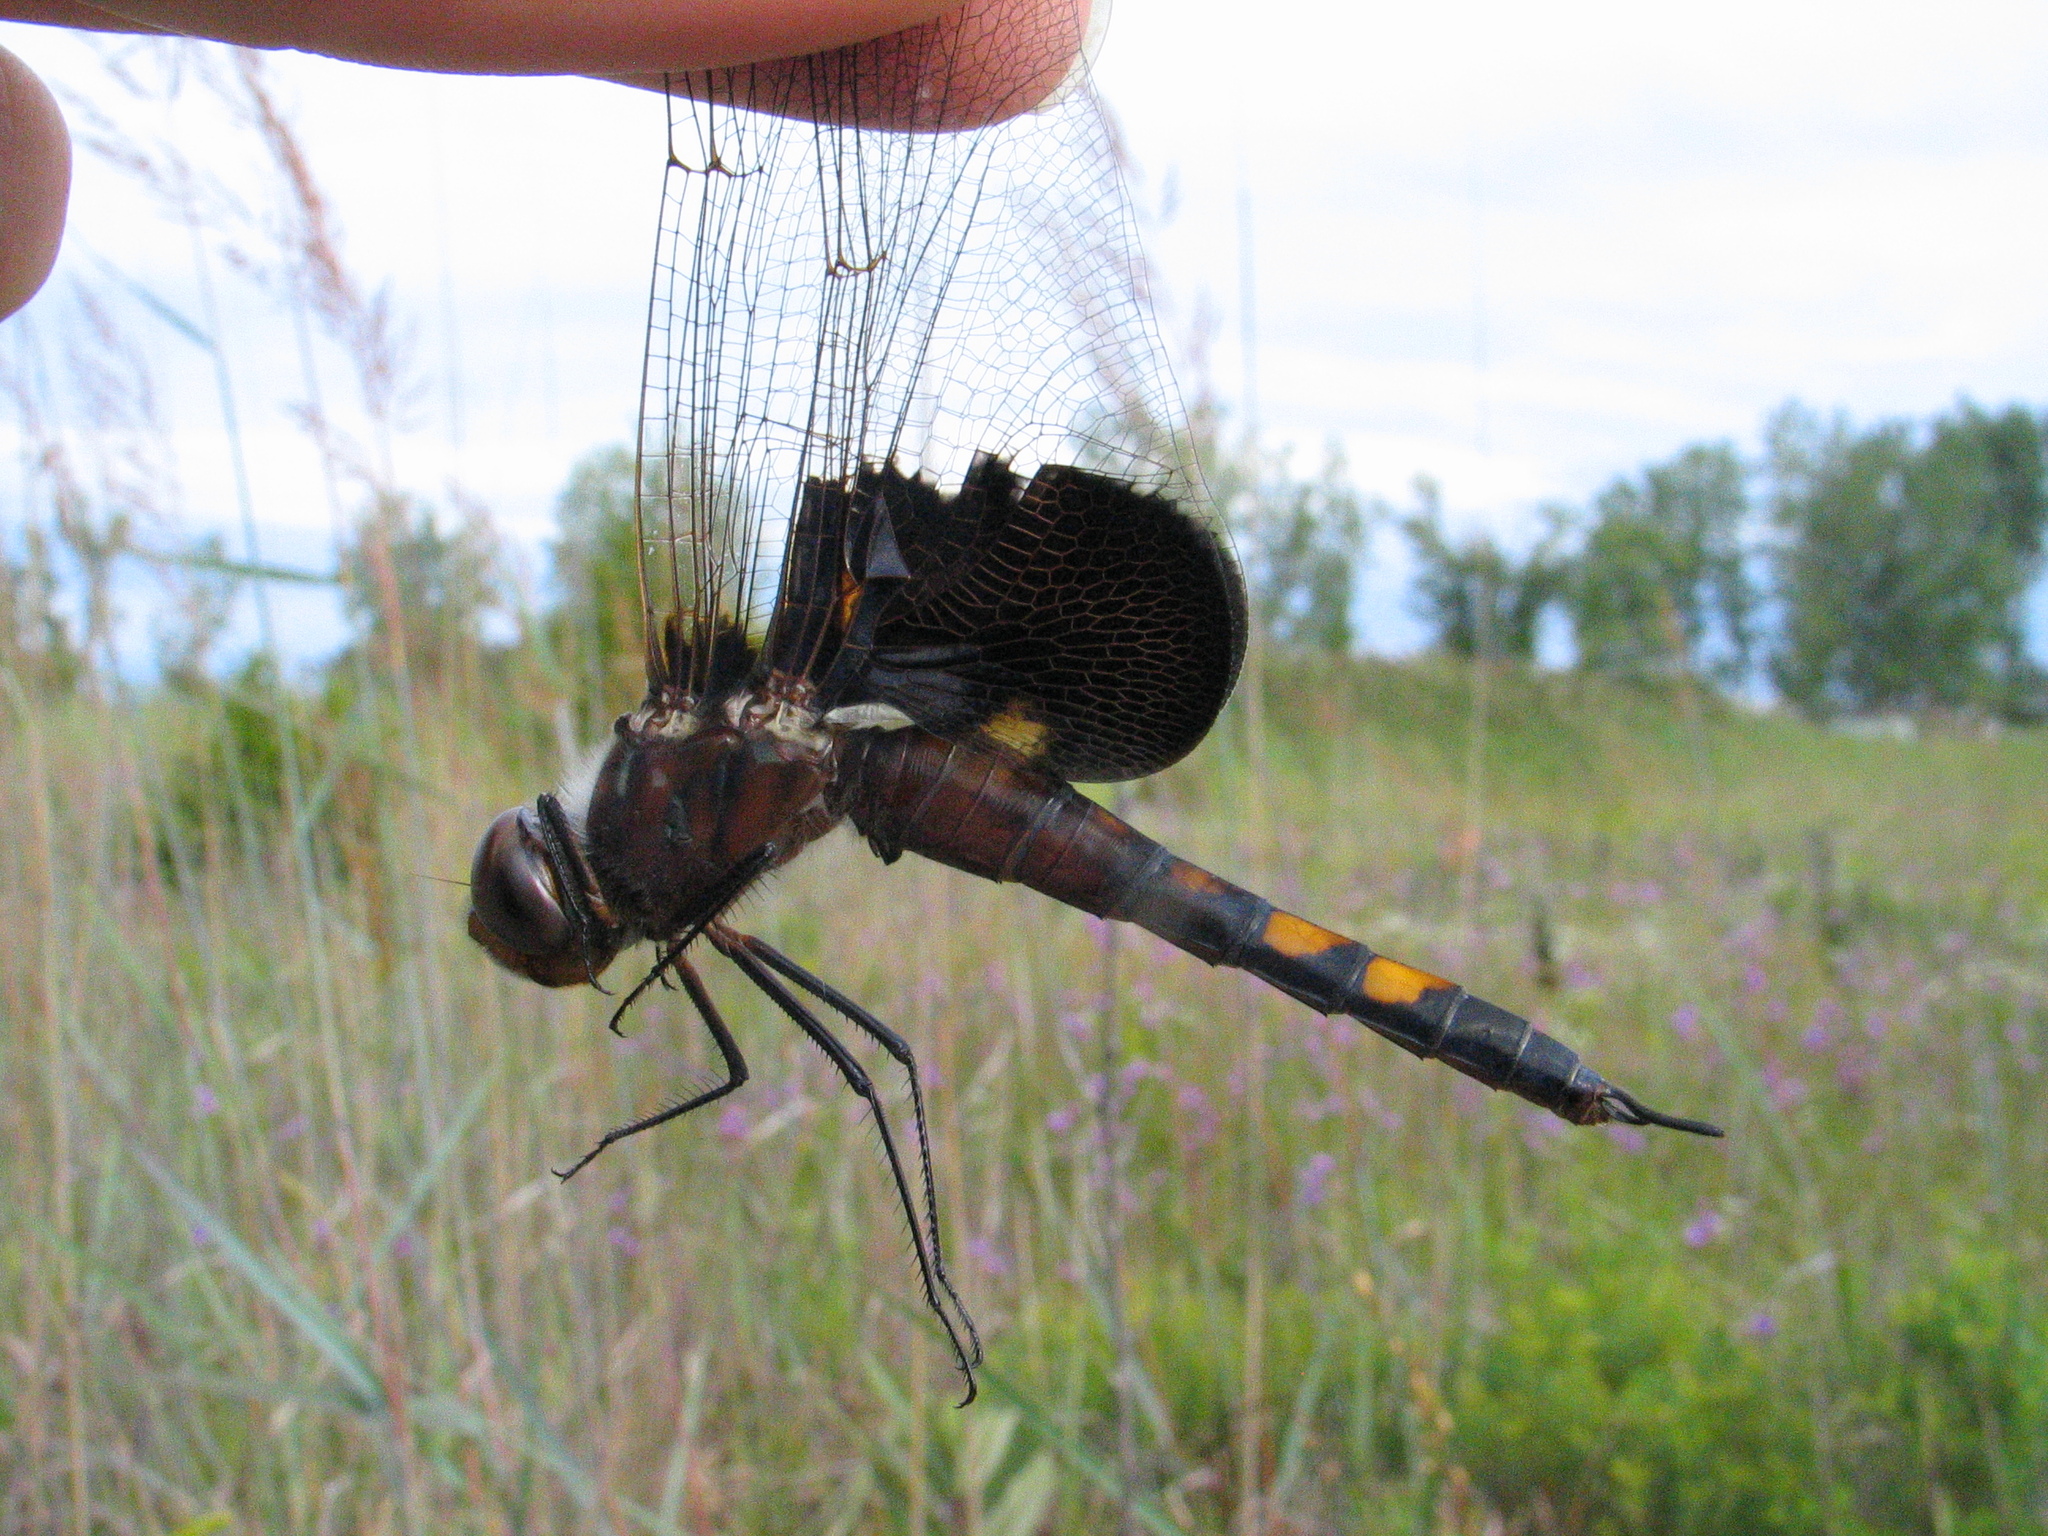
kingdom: Animalia
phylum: Arthropoda
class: Insecta
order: Odonata
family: Libellulidae
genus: Tramea
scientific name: Tramea lacerata
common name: Black saddlebags
